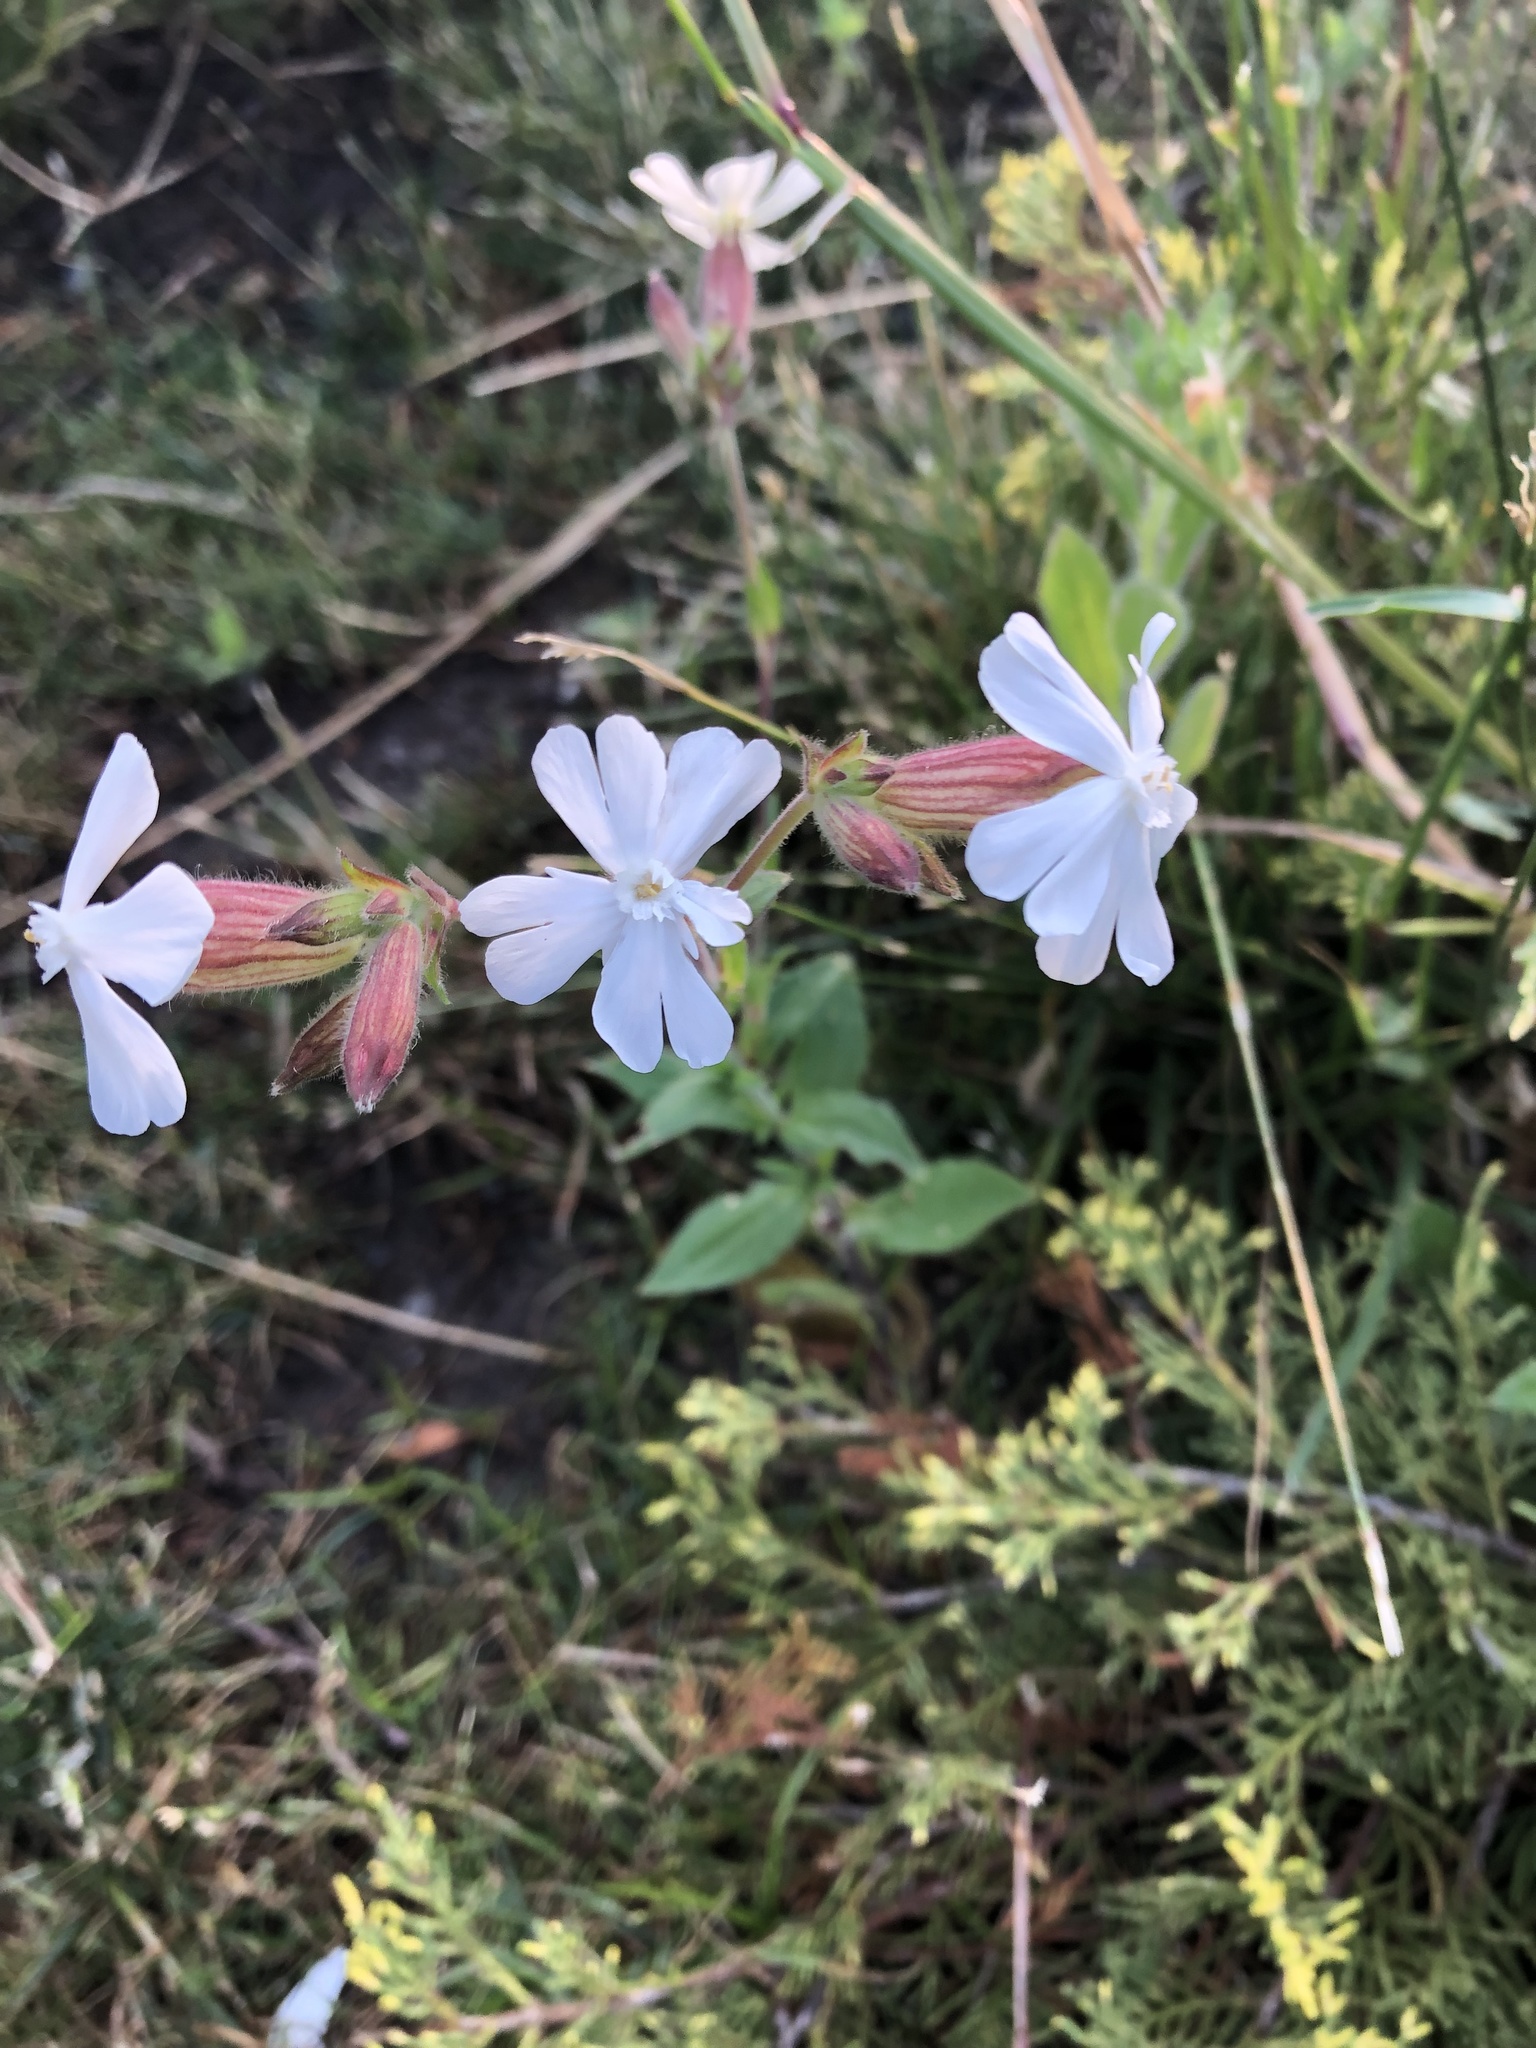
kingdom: Plantae
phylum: Tracheophyta
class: Magnoliopsida
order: Caryophyllales
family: Caryophyllaceae
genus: Silene
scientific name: Silene latifolia
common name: White campion
